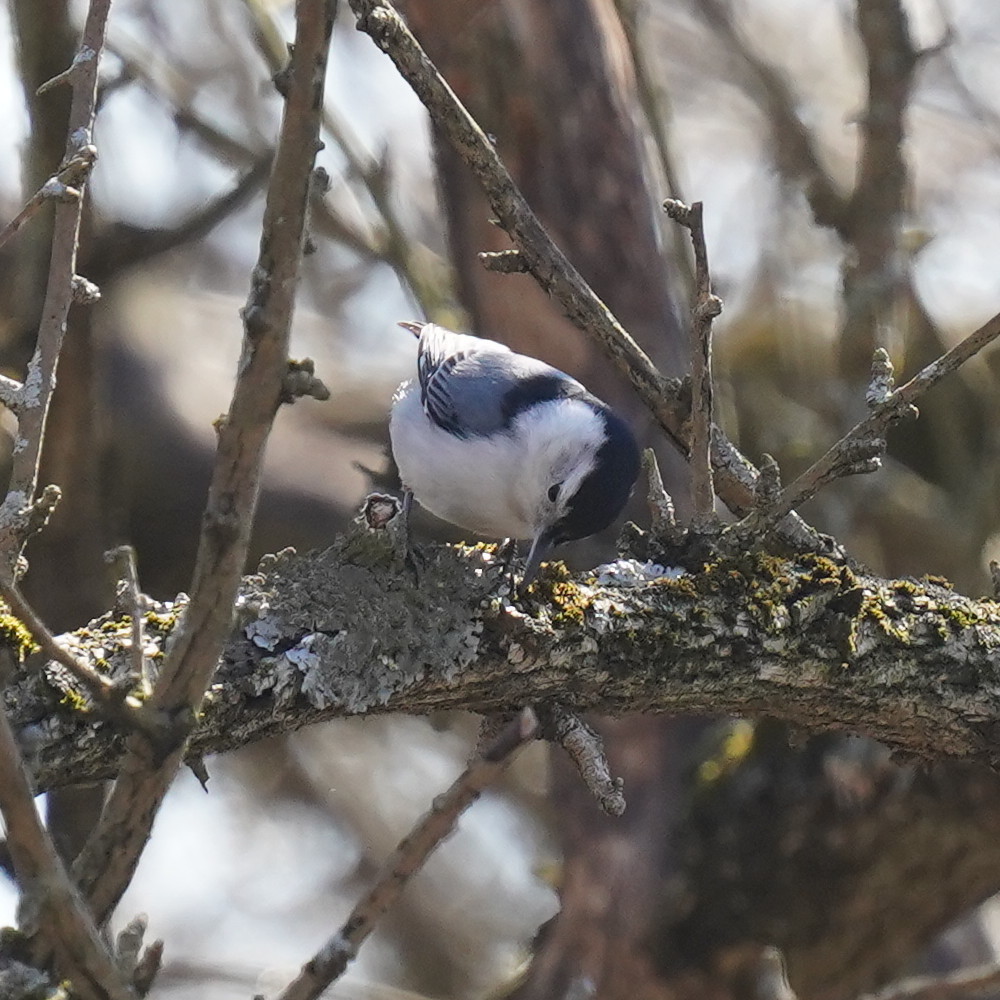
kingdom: Animalia
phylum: Chordata
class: Aves
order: Passeriformes
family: Sittidae
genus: Sitta
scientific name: Sitta carolinensis
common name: White-breasted nuthatch
